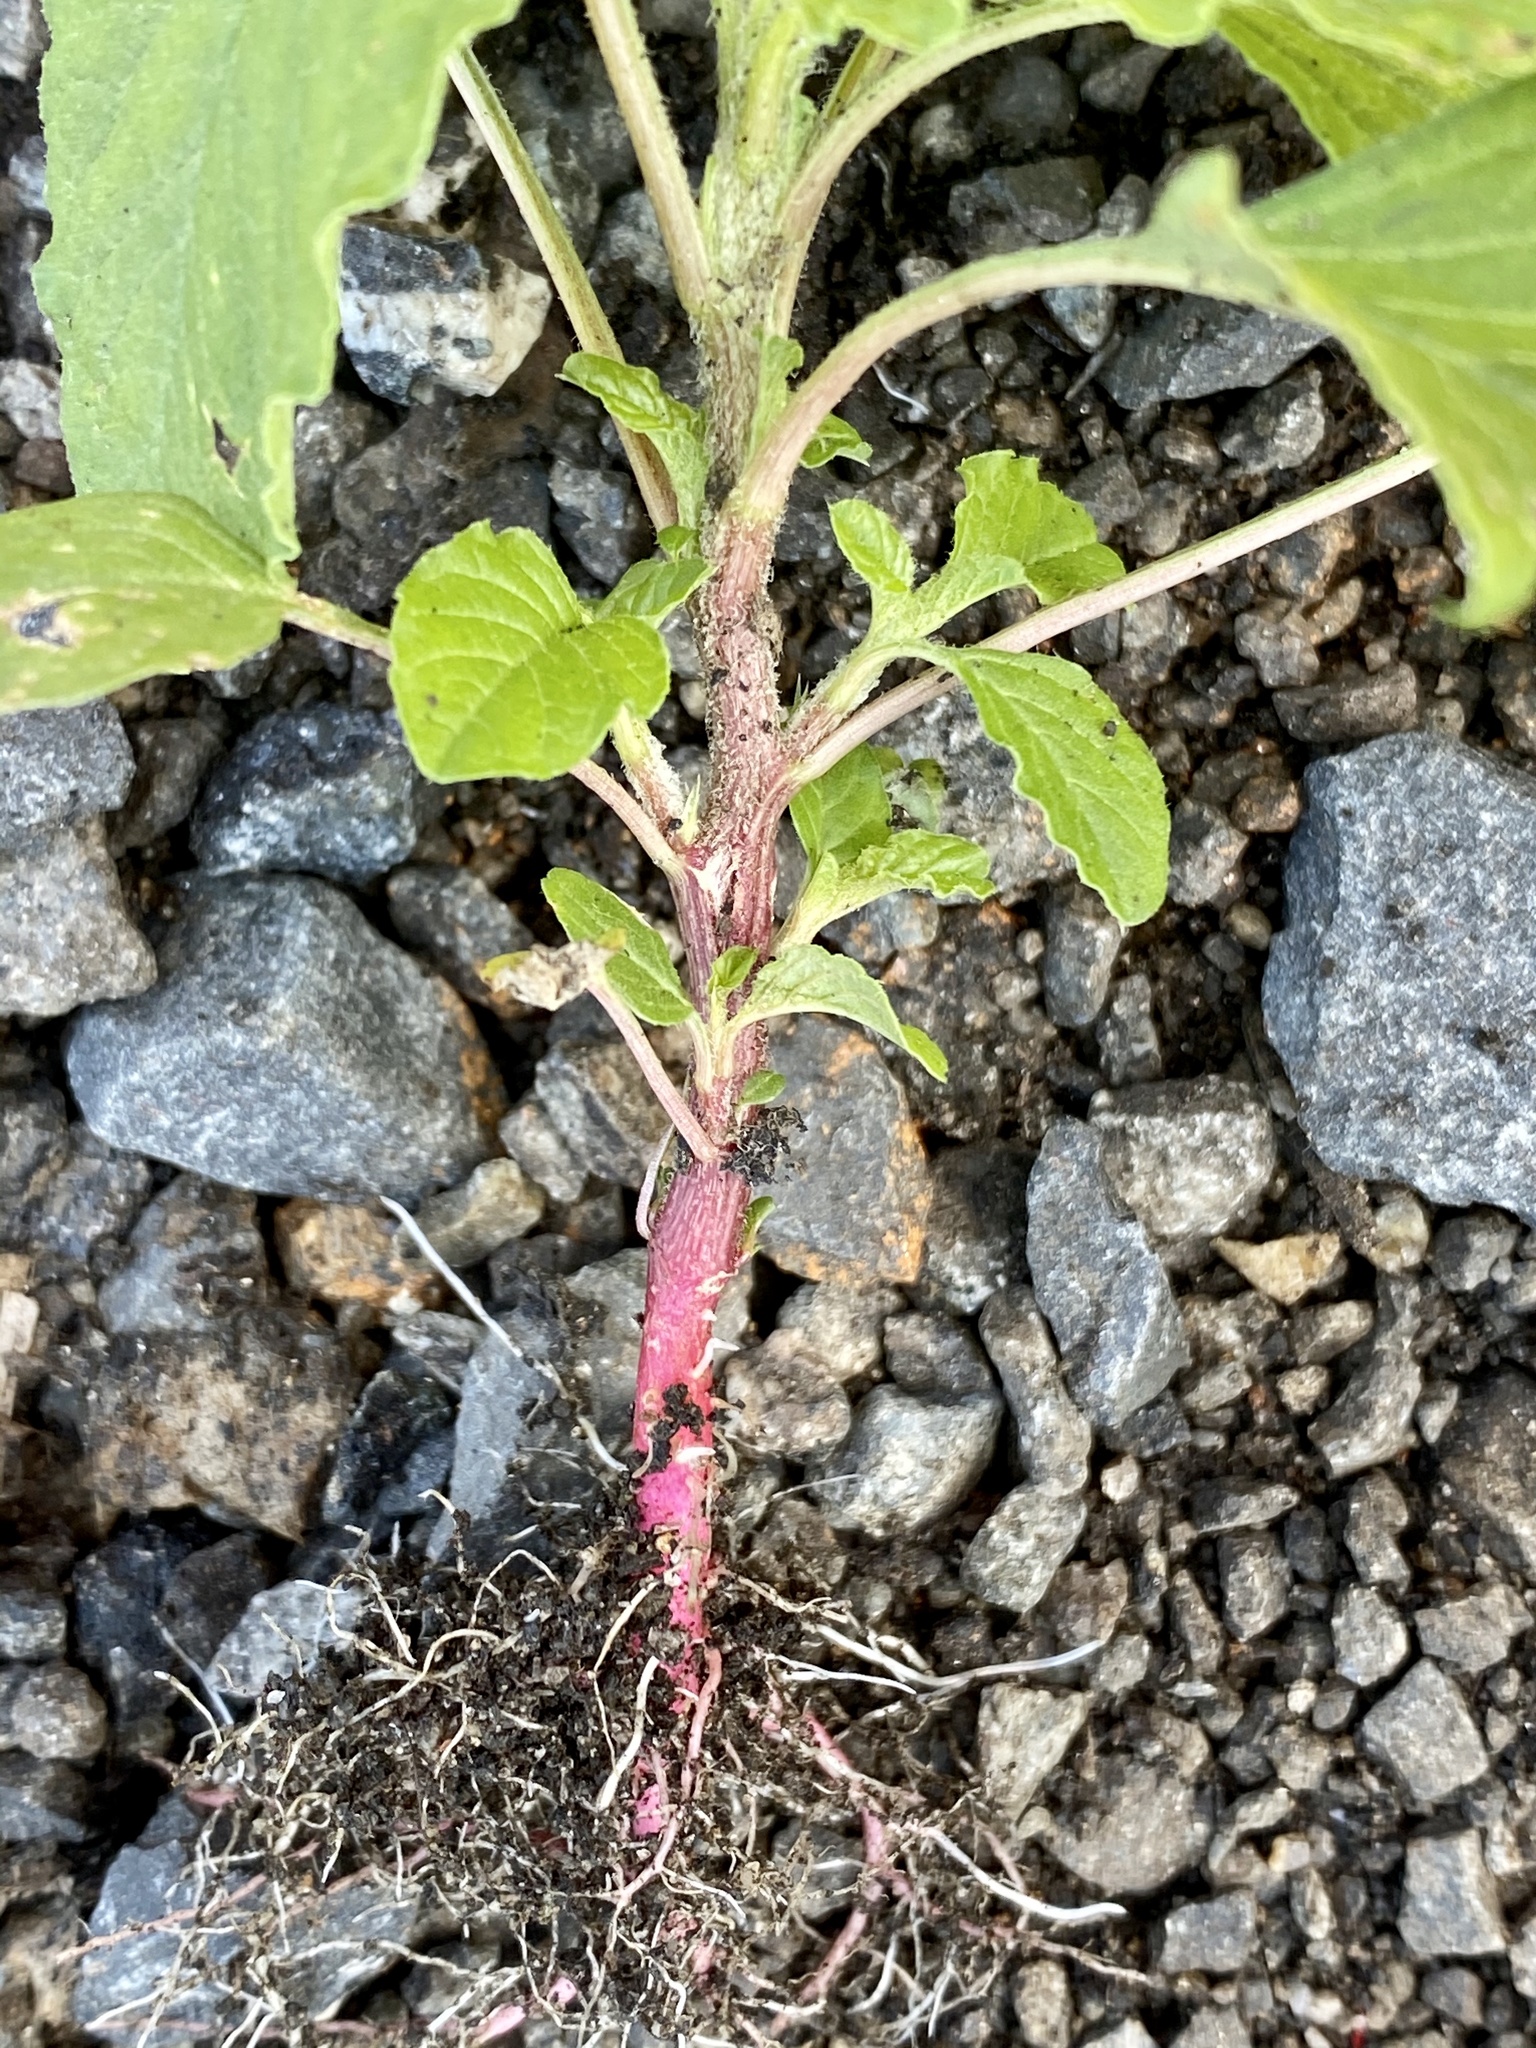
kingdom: Plantae
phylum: Tracheophyta
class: Magnoliopsida
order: Caryophyllales
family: Amaranthaceae
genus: Amaranthus
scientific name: Amaranthus retroflexus
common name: Redroot amaranth
